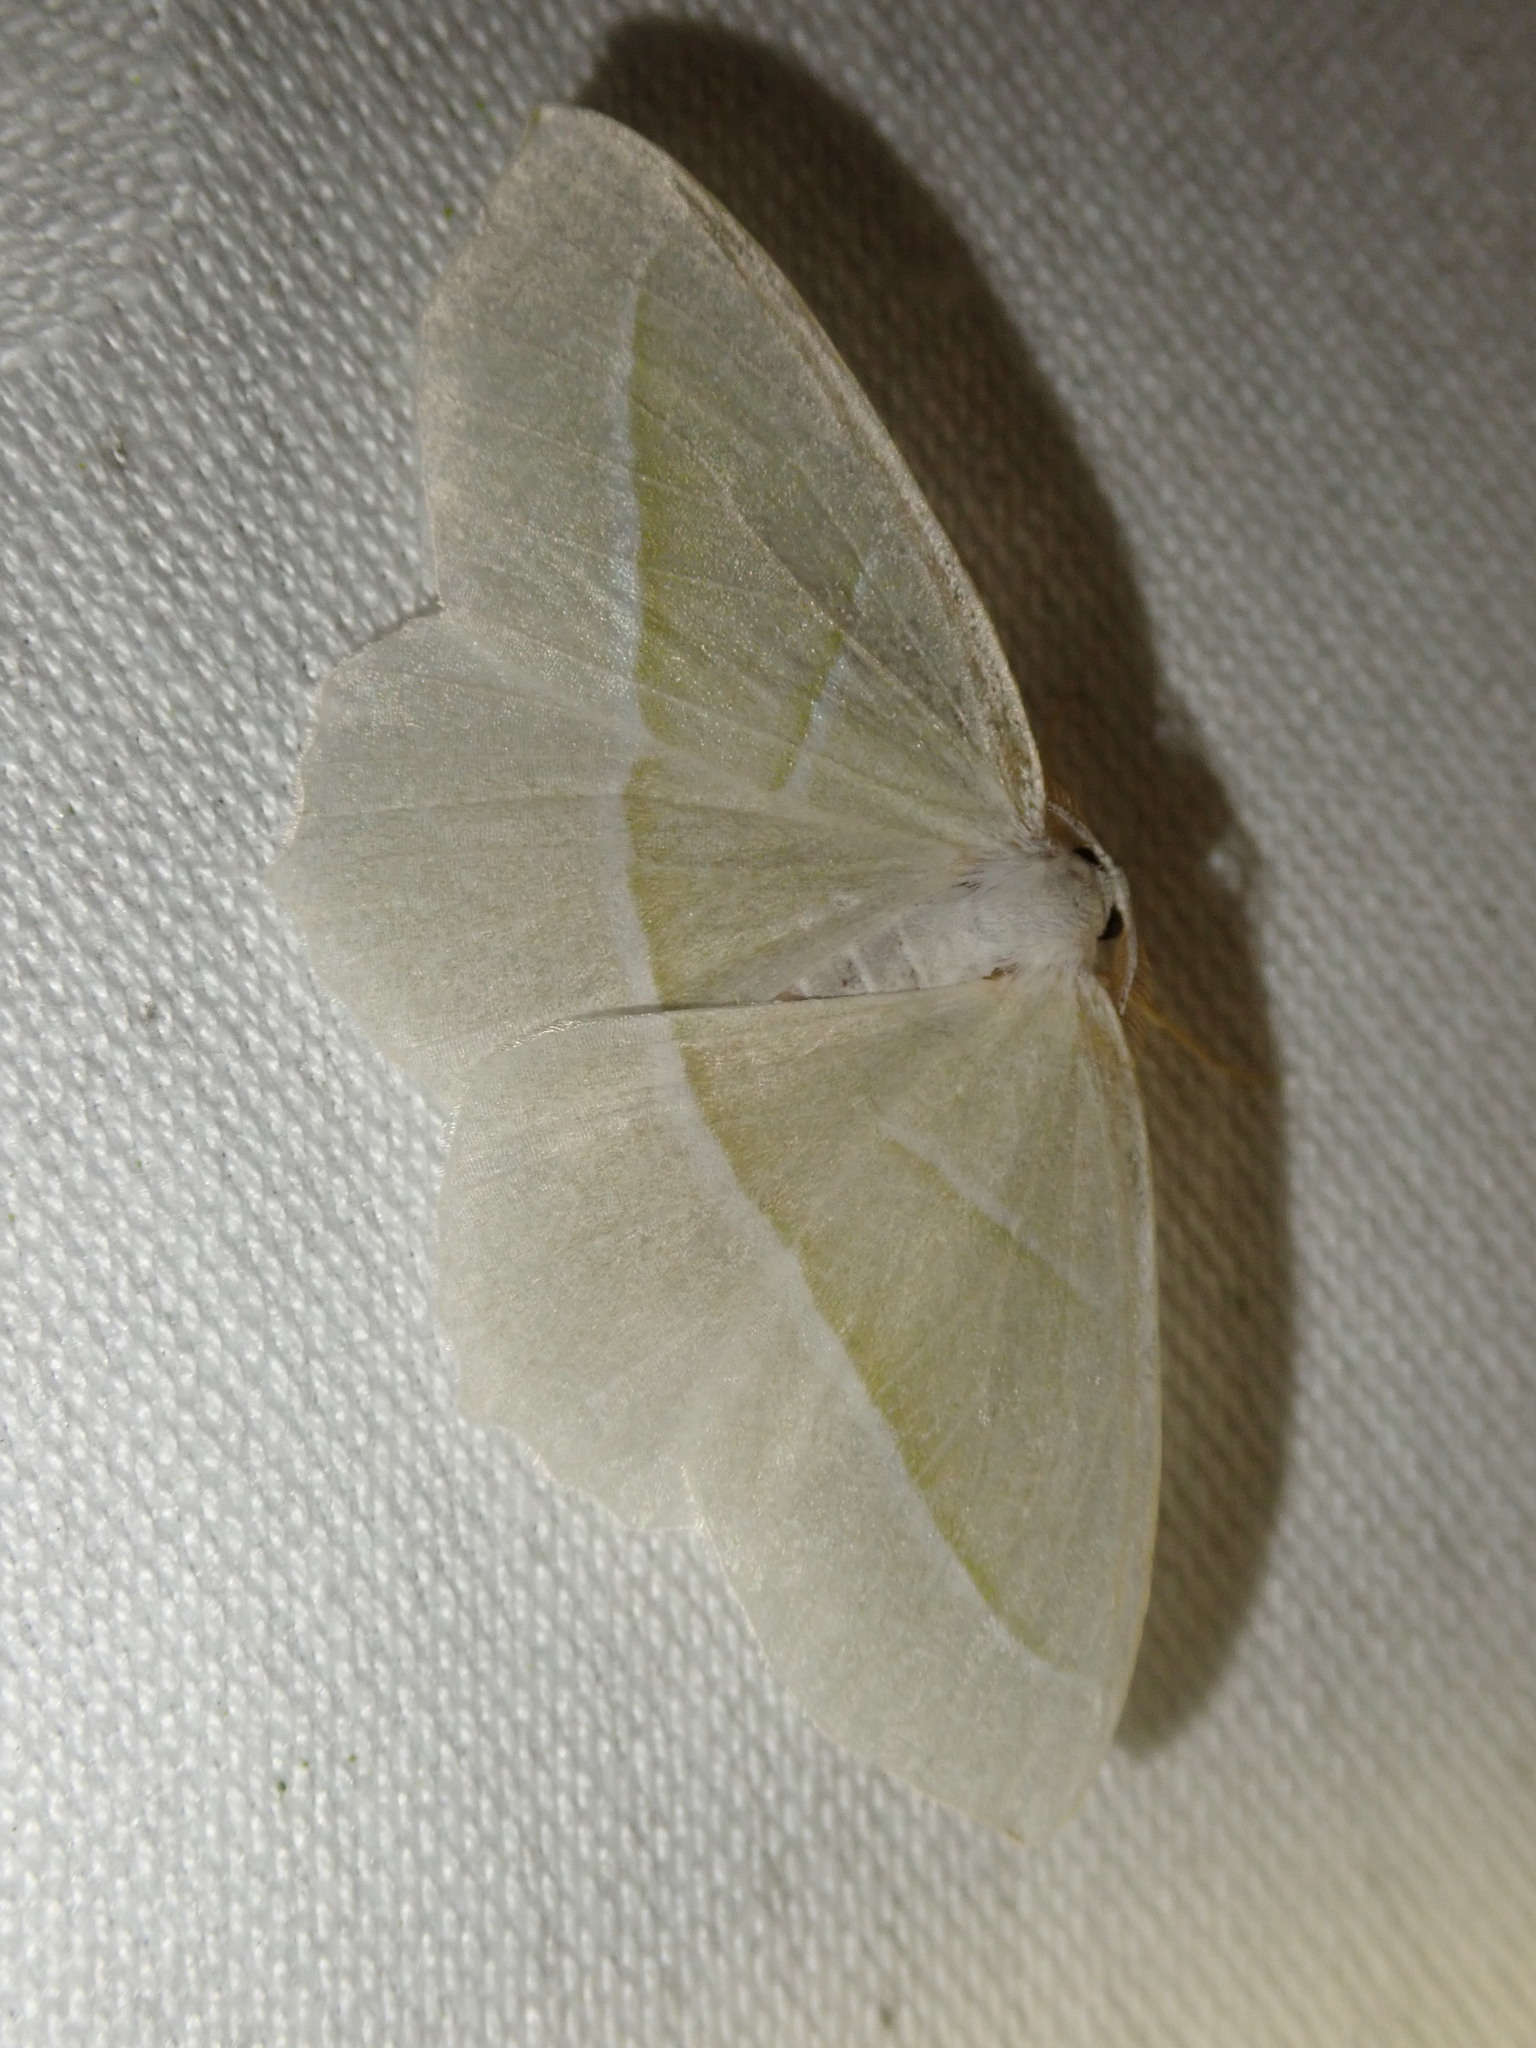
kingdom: Animalia
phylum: Arthropoda
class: Insecta
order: Lepidoptera
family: Geometridae
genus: Campaea
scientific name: Campaea margaritaria
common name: Light emerald
